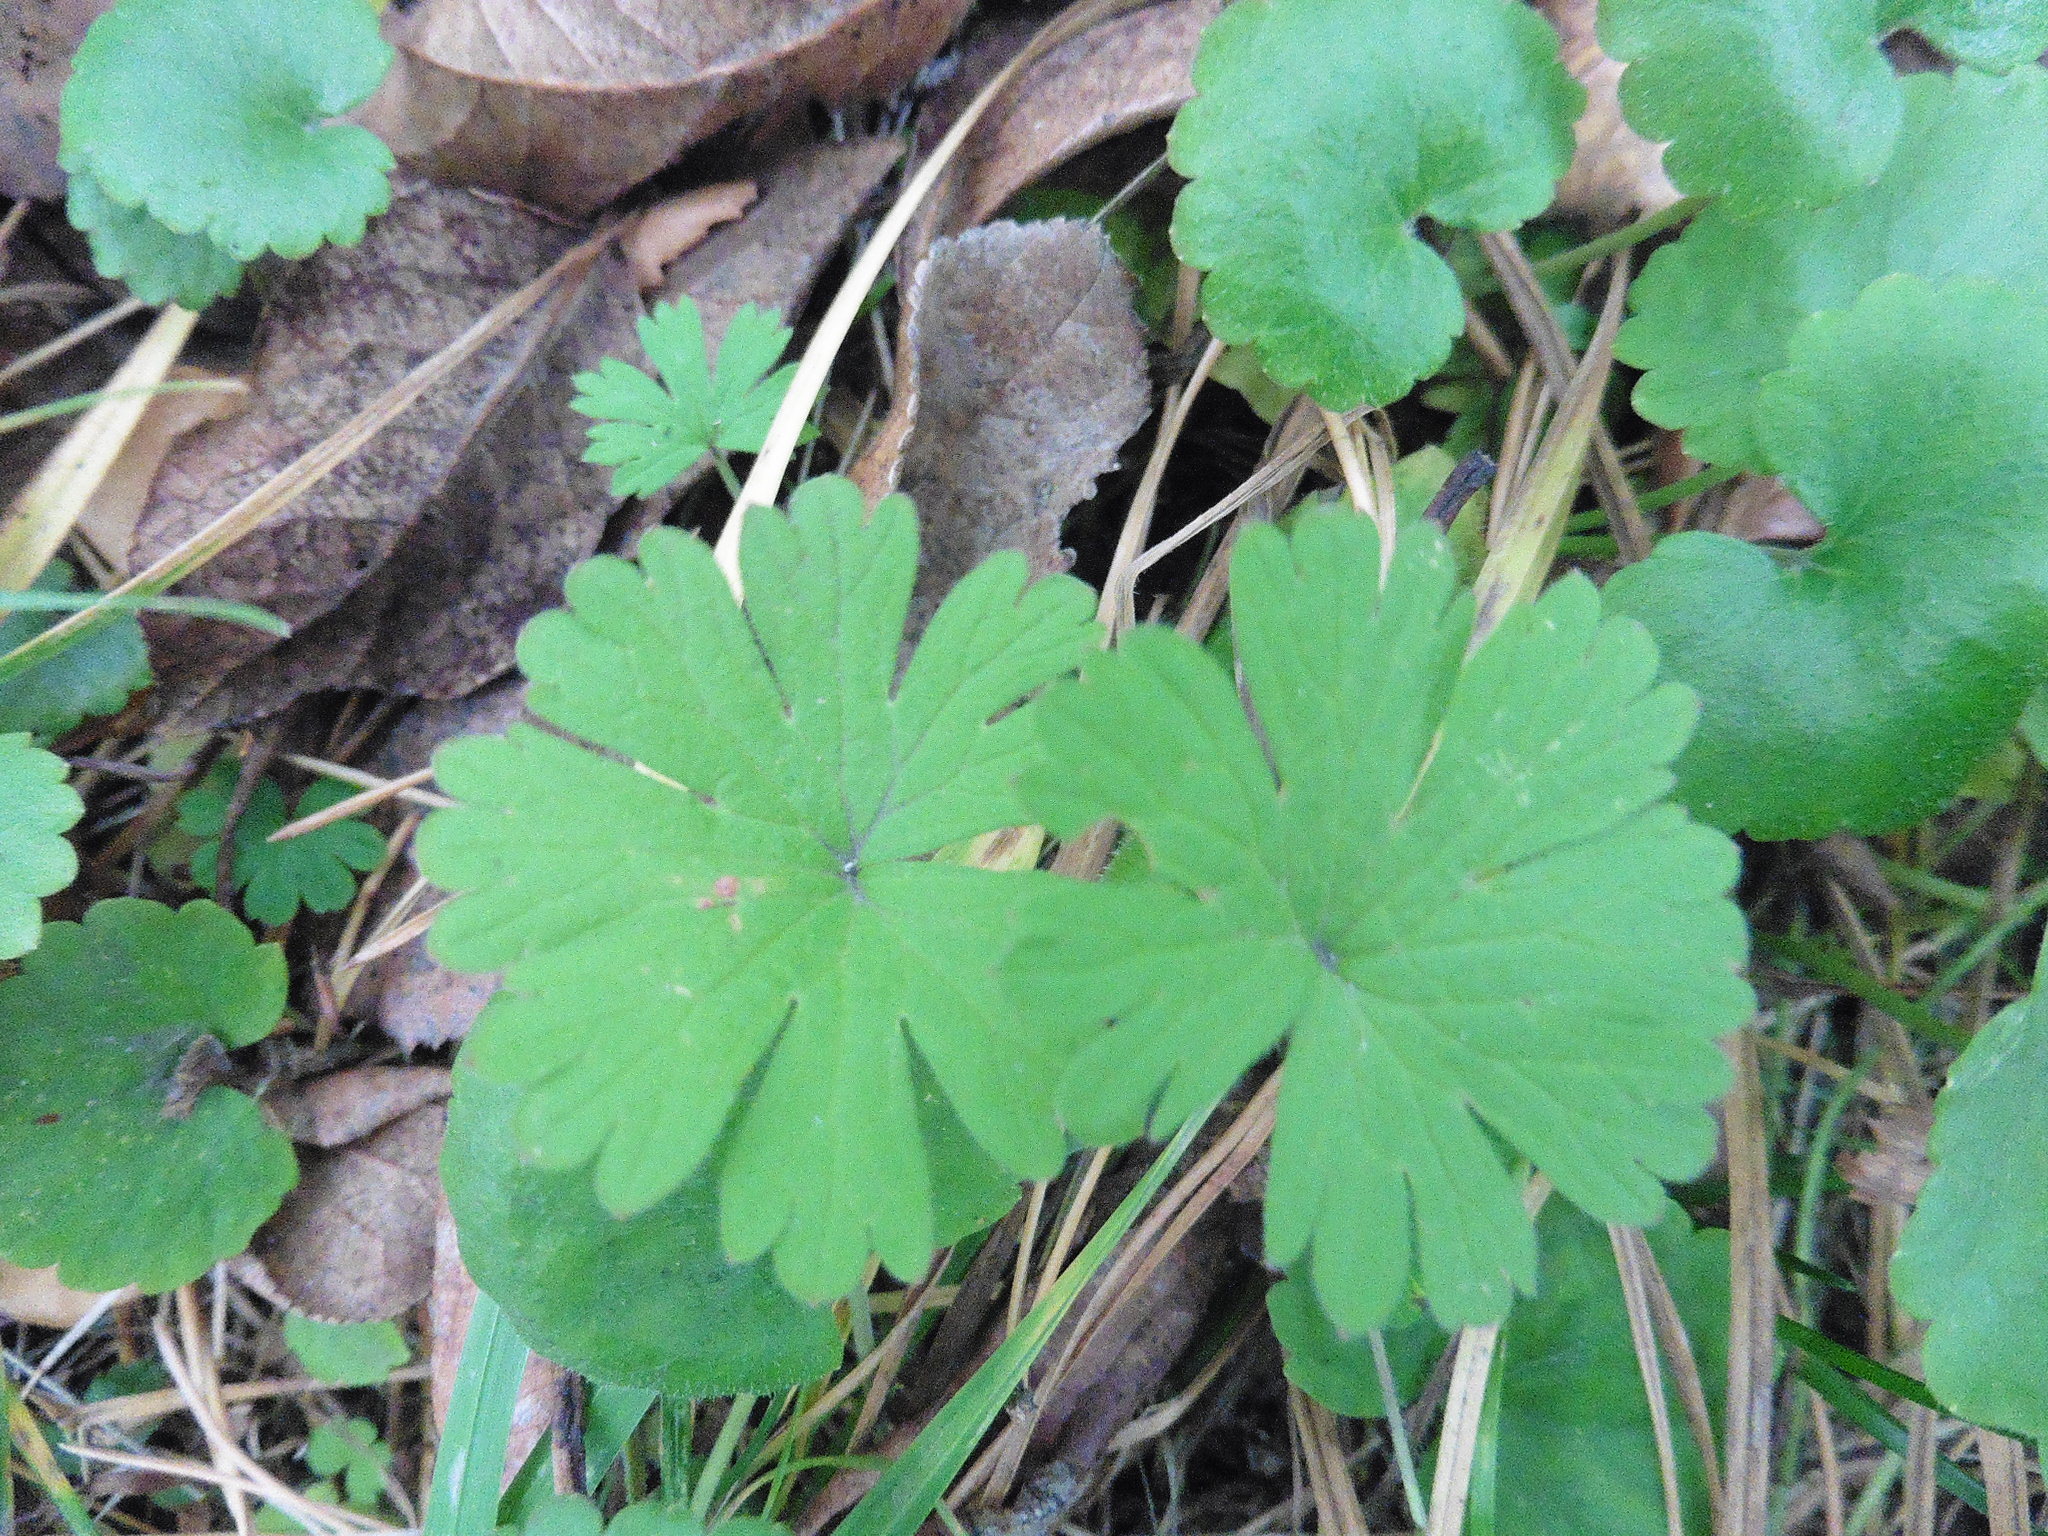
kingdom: Plantae
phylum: Tracheophyta
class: Magnoliopsida
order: Geraniales
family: Geraniaceae
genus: Geranium
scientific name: Geranium pusillum
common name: Small geranium
